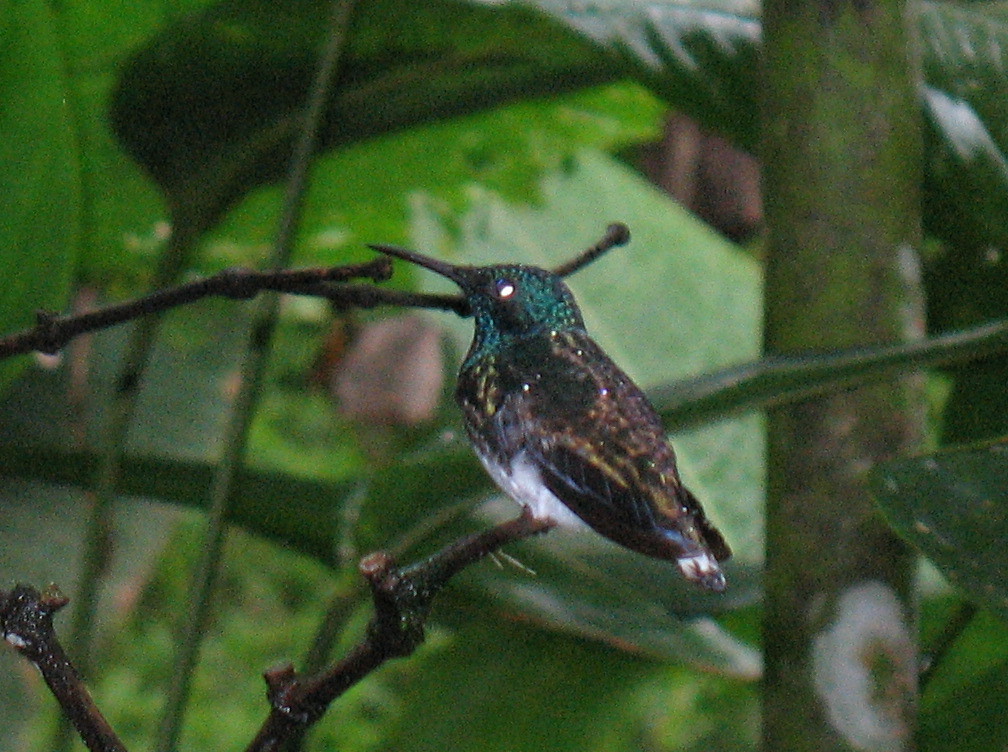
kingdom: Animalia
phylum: Chordata
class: Aves
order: Apodiformes
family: Trochilidae
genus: Florisuga
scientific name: Florisuga mellivora
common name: White-necked jacobin
